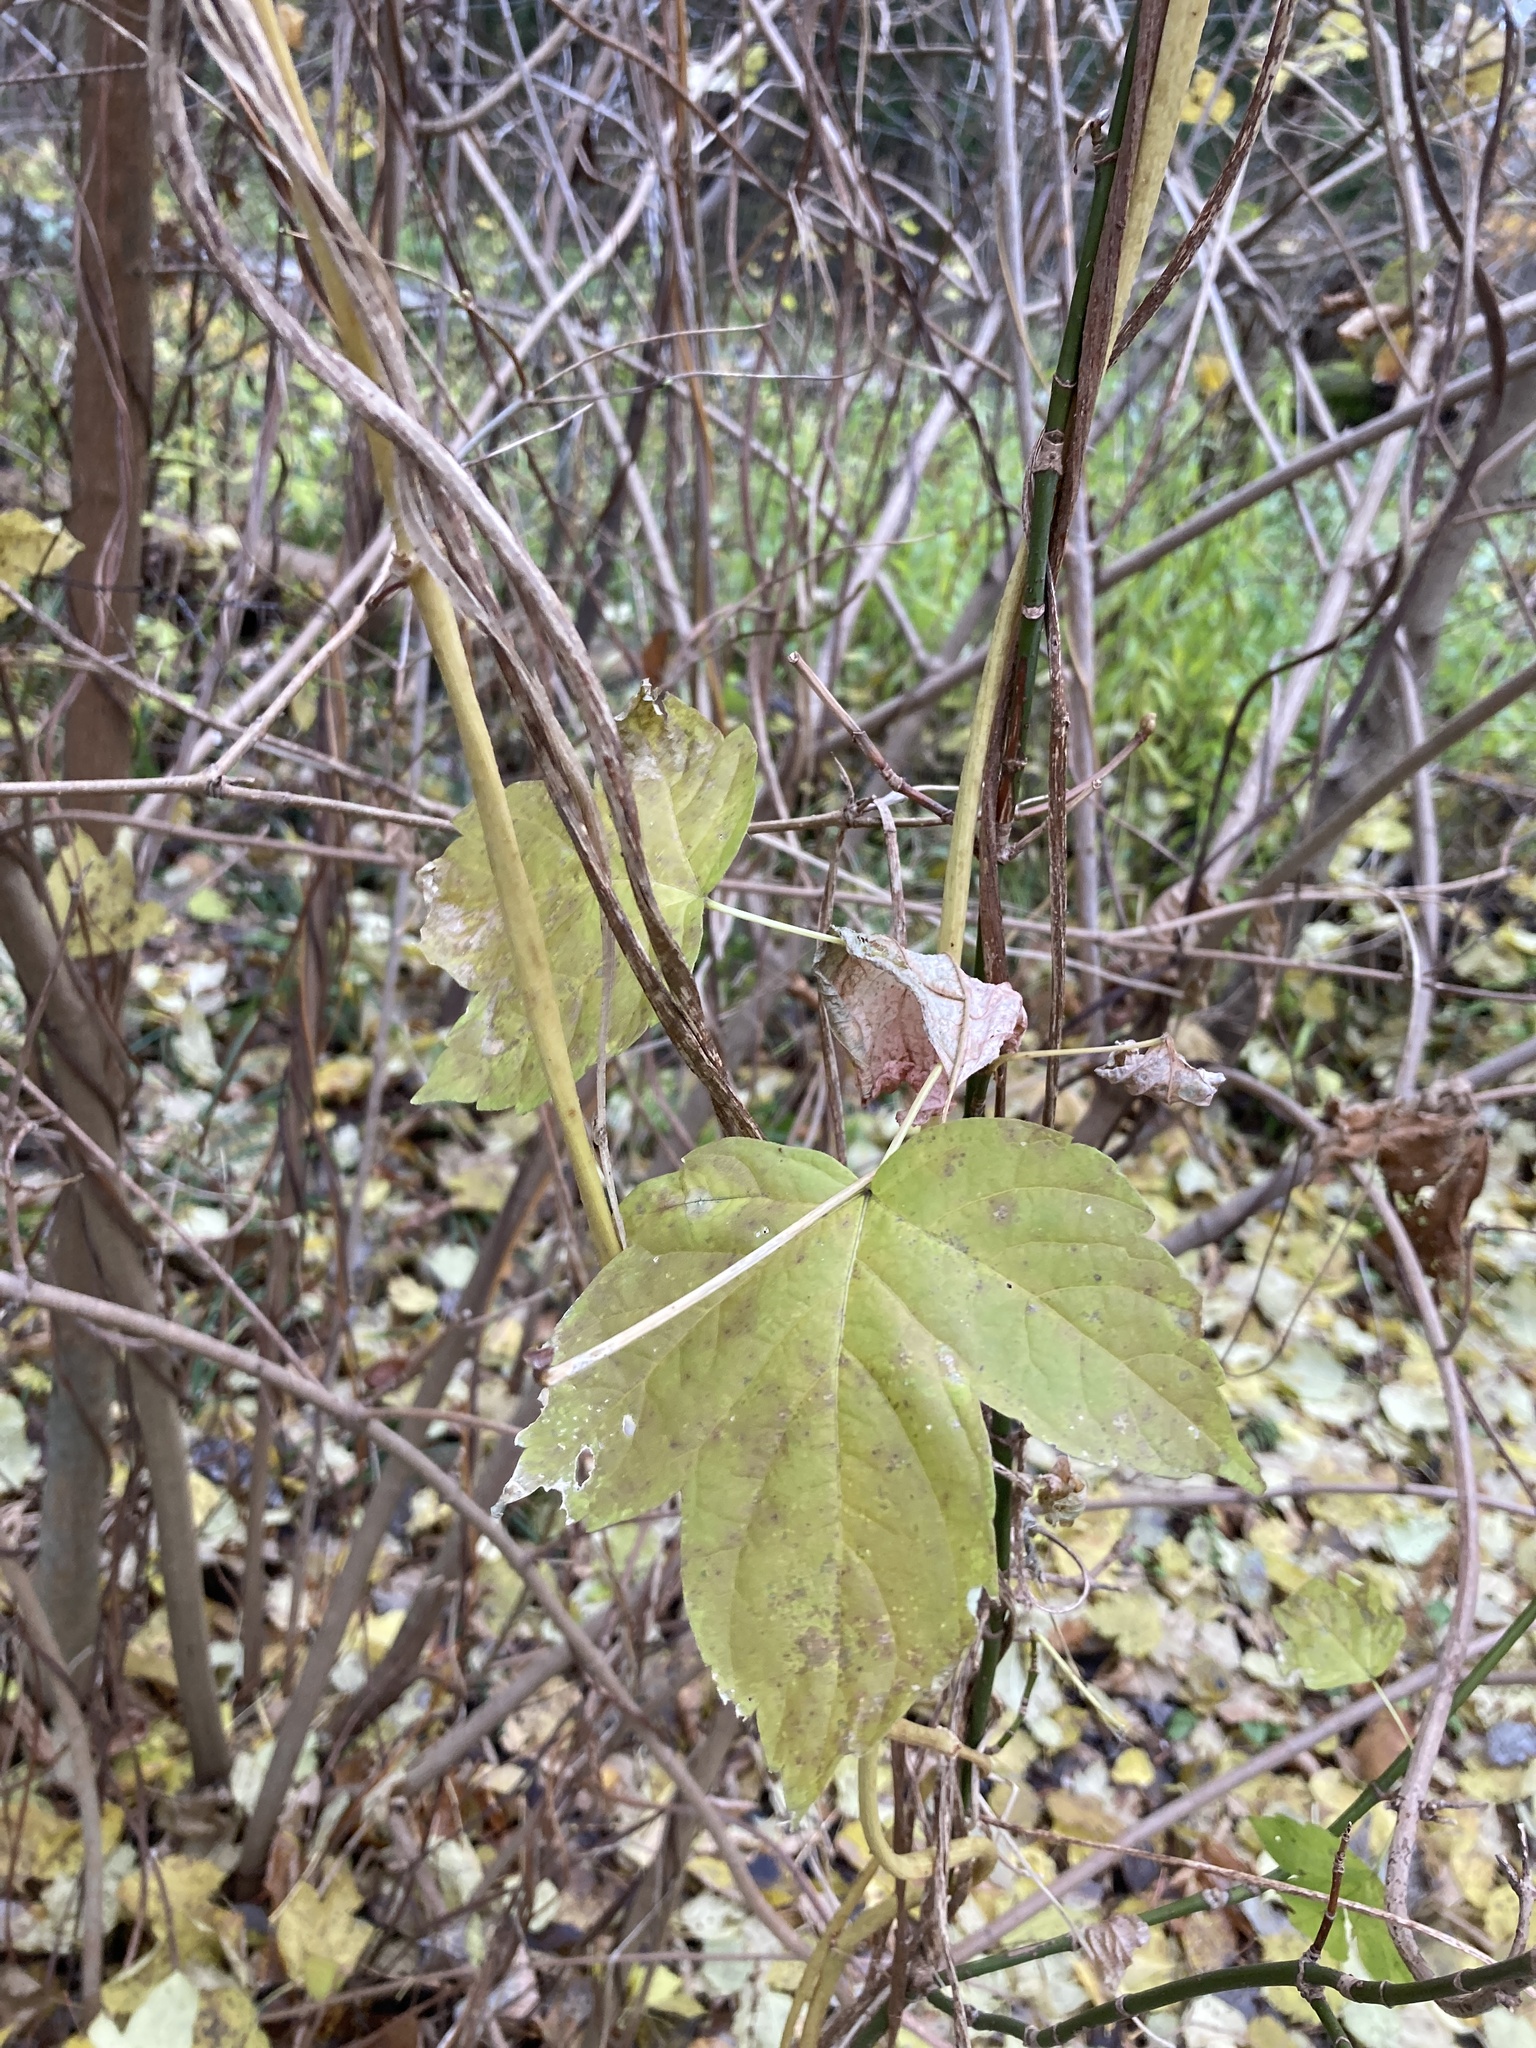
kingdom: Plantae
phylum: Tracheophyta
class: Magnoliopsida
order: Rosales
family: Cannabaceae
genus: Humulus
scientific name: Humulus lupulus
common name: Hop
